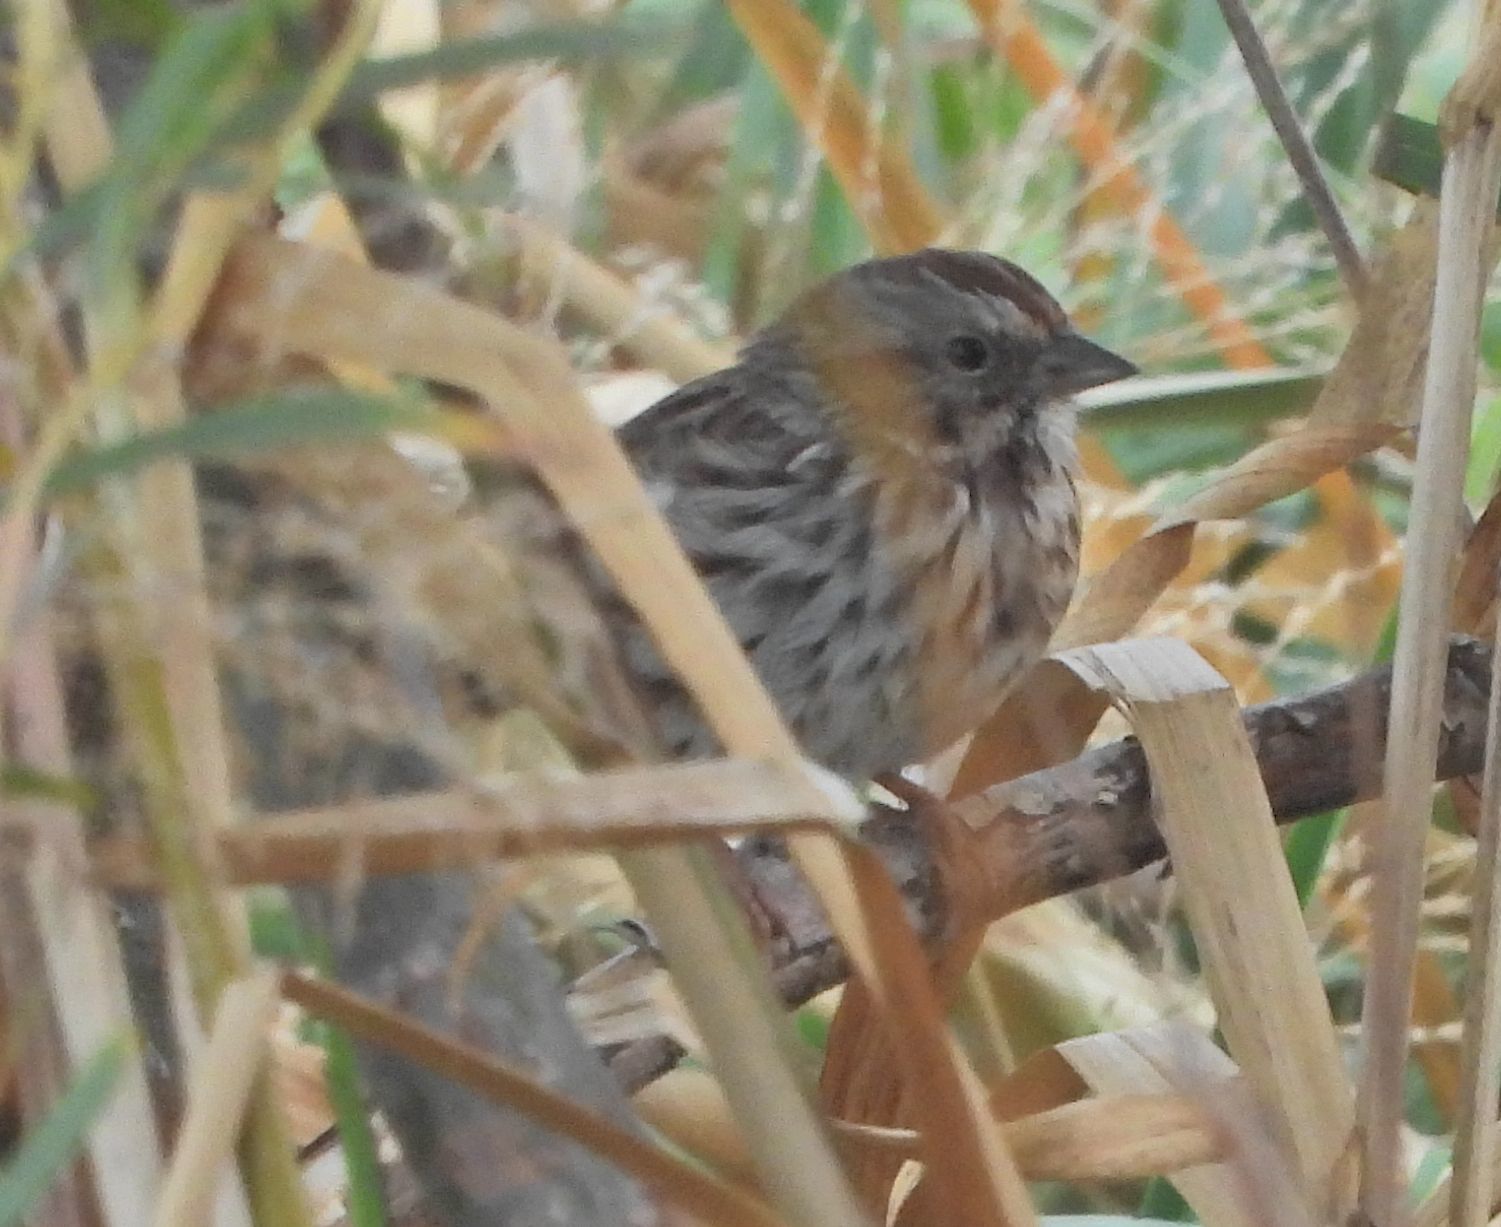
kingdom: Animalia
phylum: Chordata
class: Aves
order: Passeriformes
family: Passerellidae
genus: Melospiza
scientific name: Melospiza melodia
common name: Song sparrow
